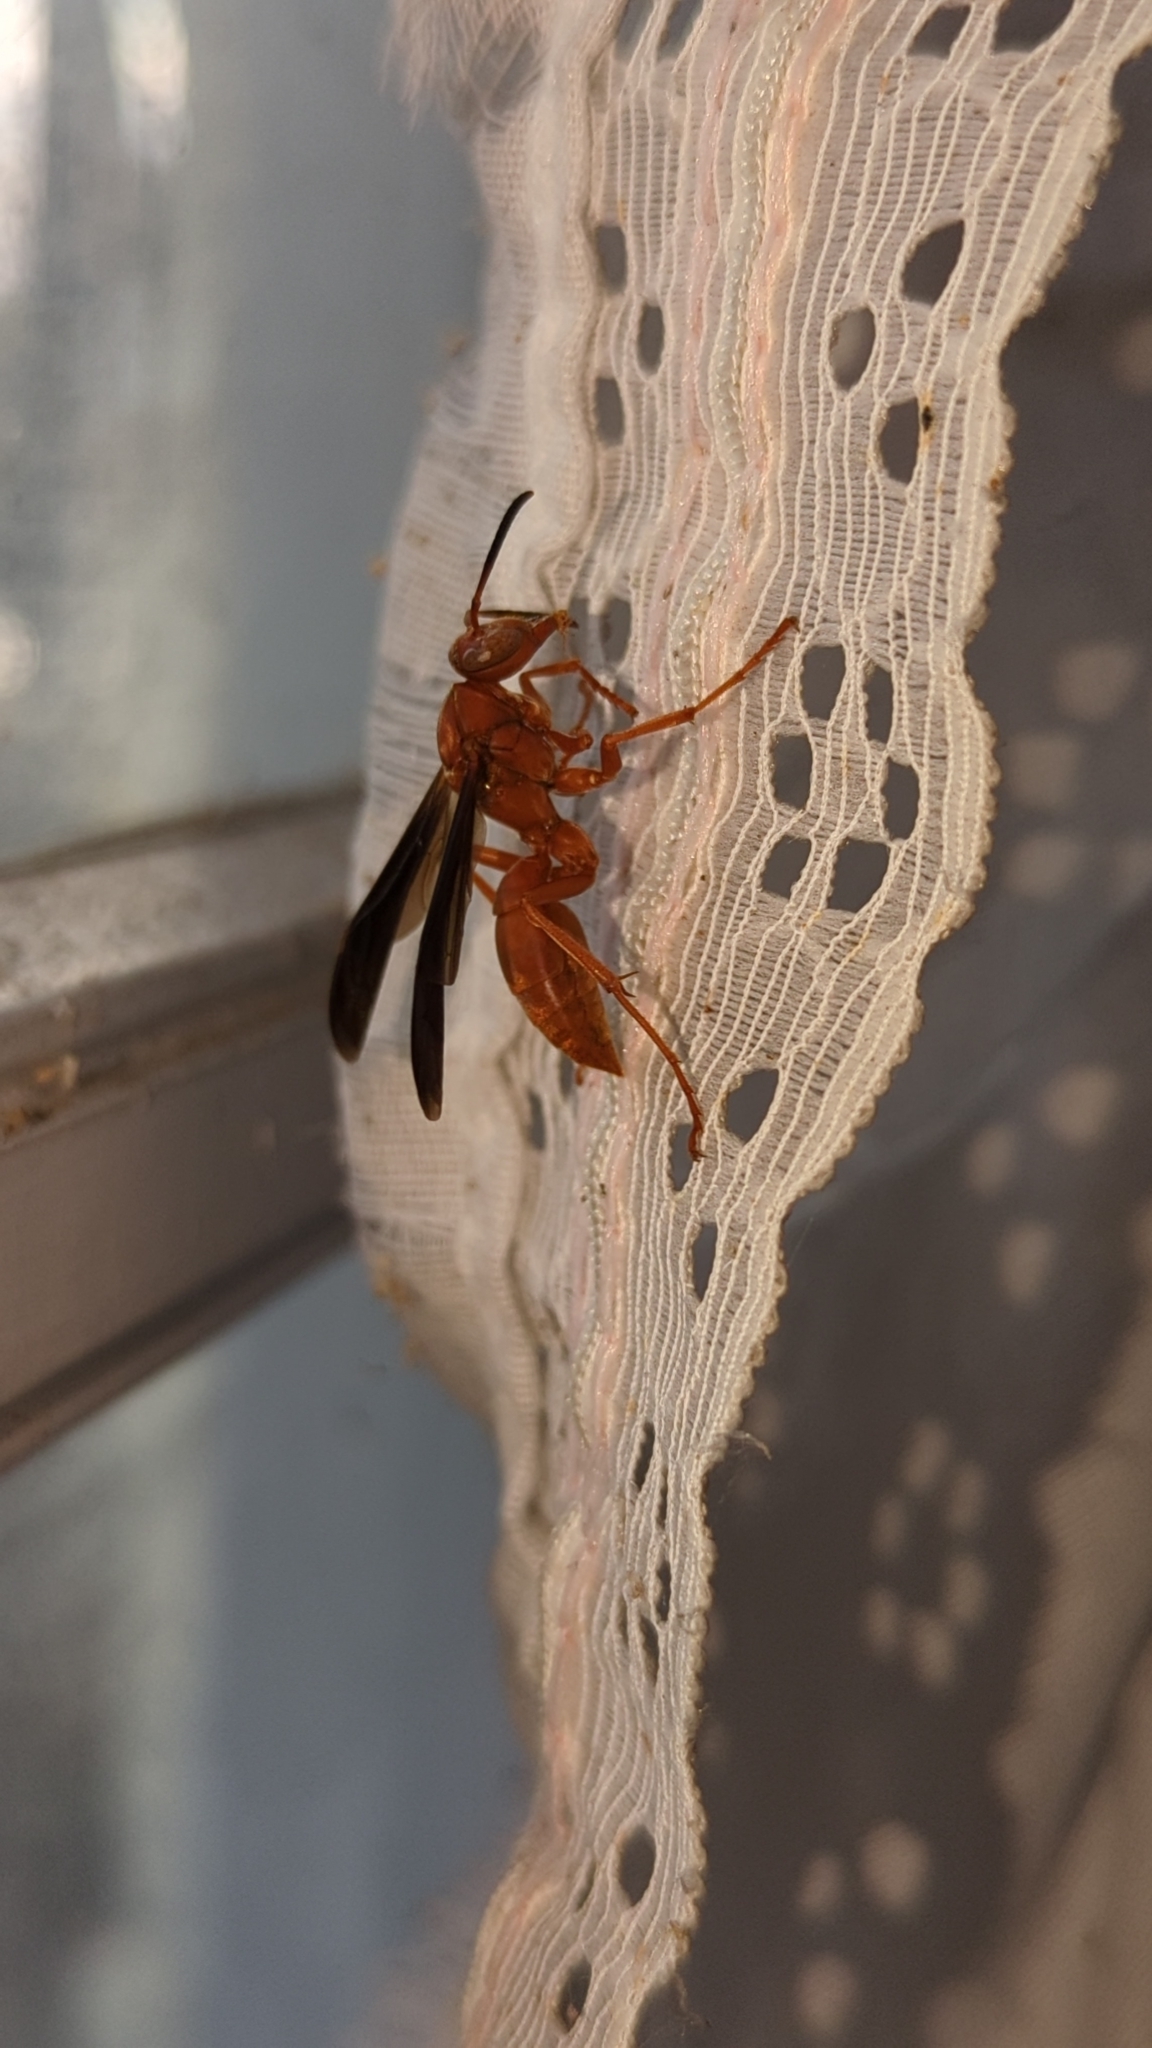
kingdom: Animalia
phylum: Arthropoda
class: Insecta
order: Hymenoptera
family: Eumenidae
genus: Polistes
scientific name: Polistes carolina
